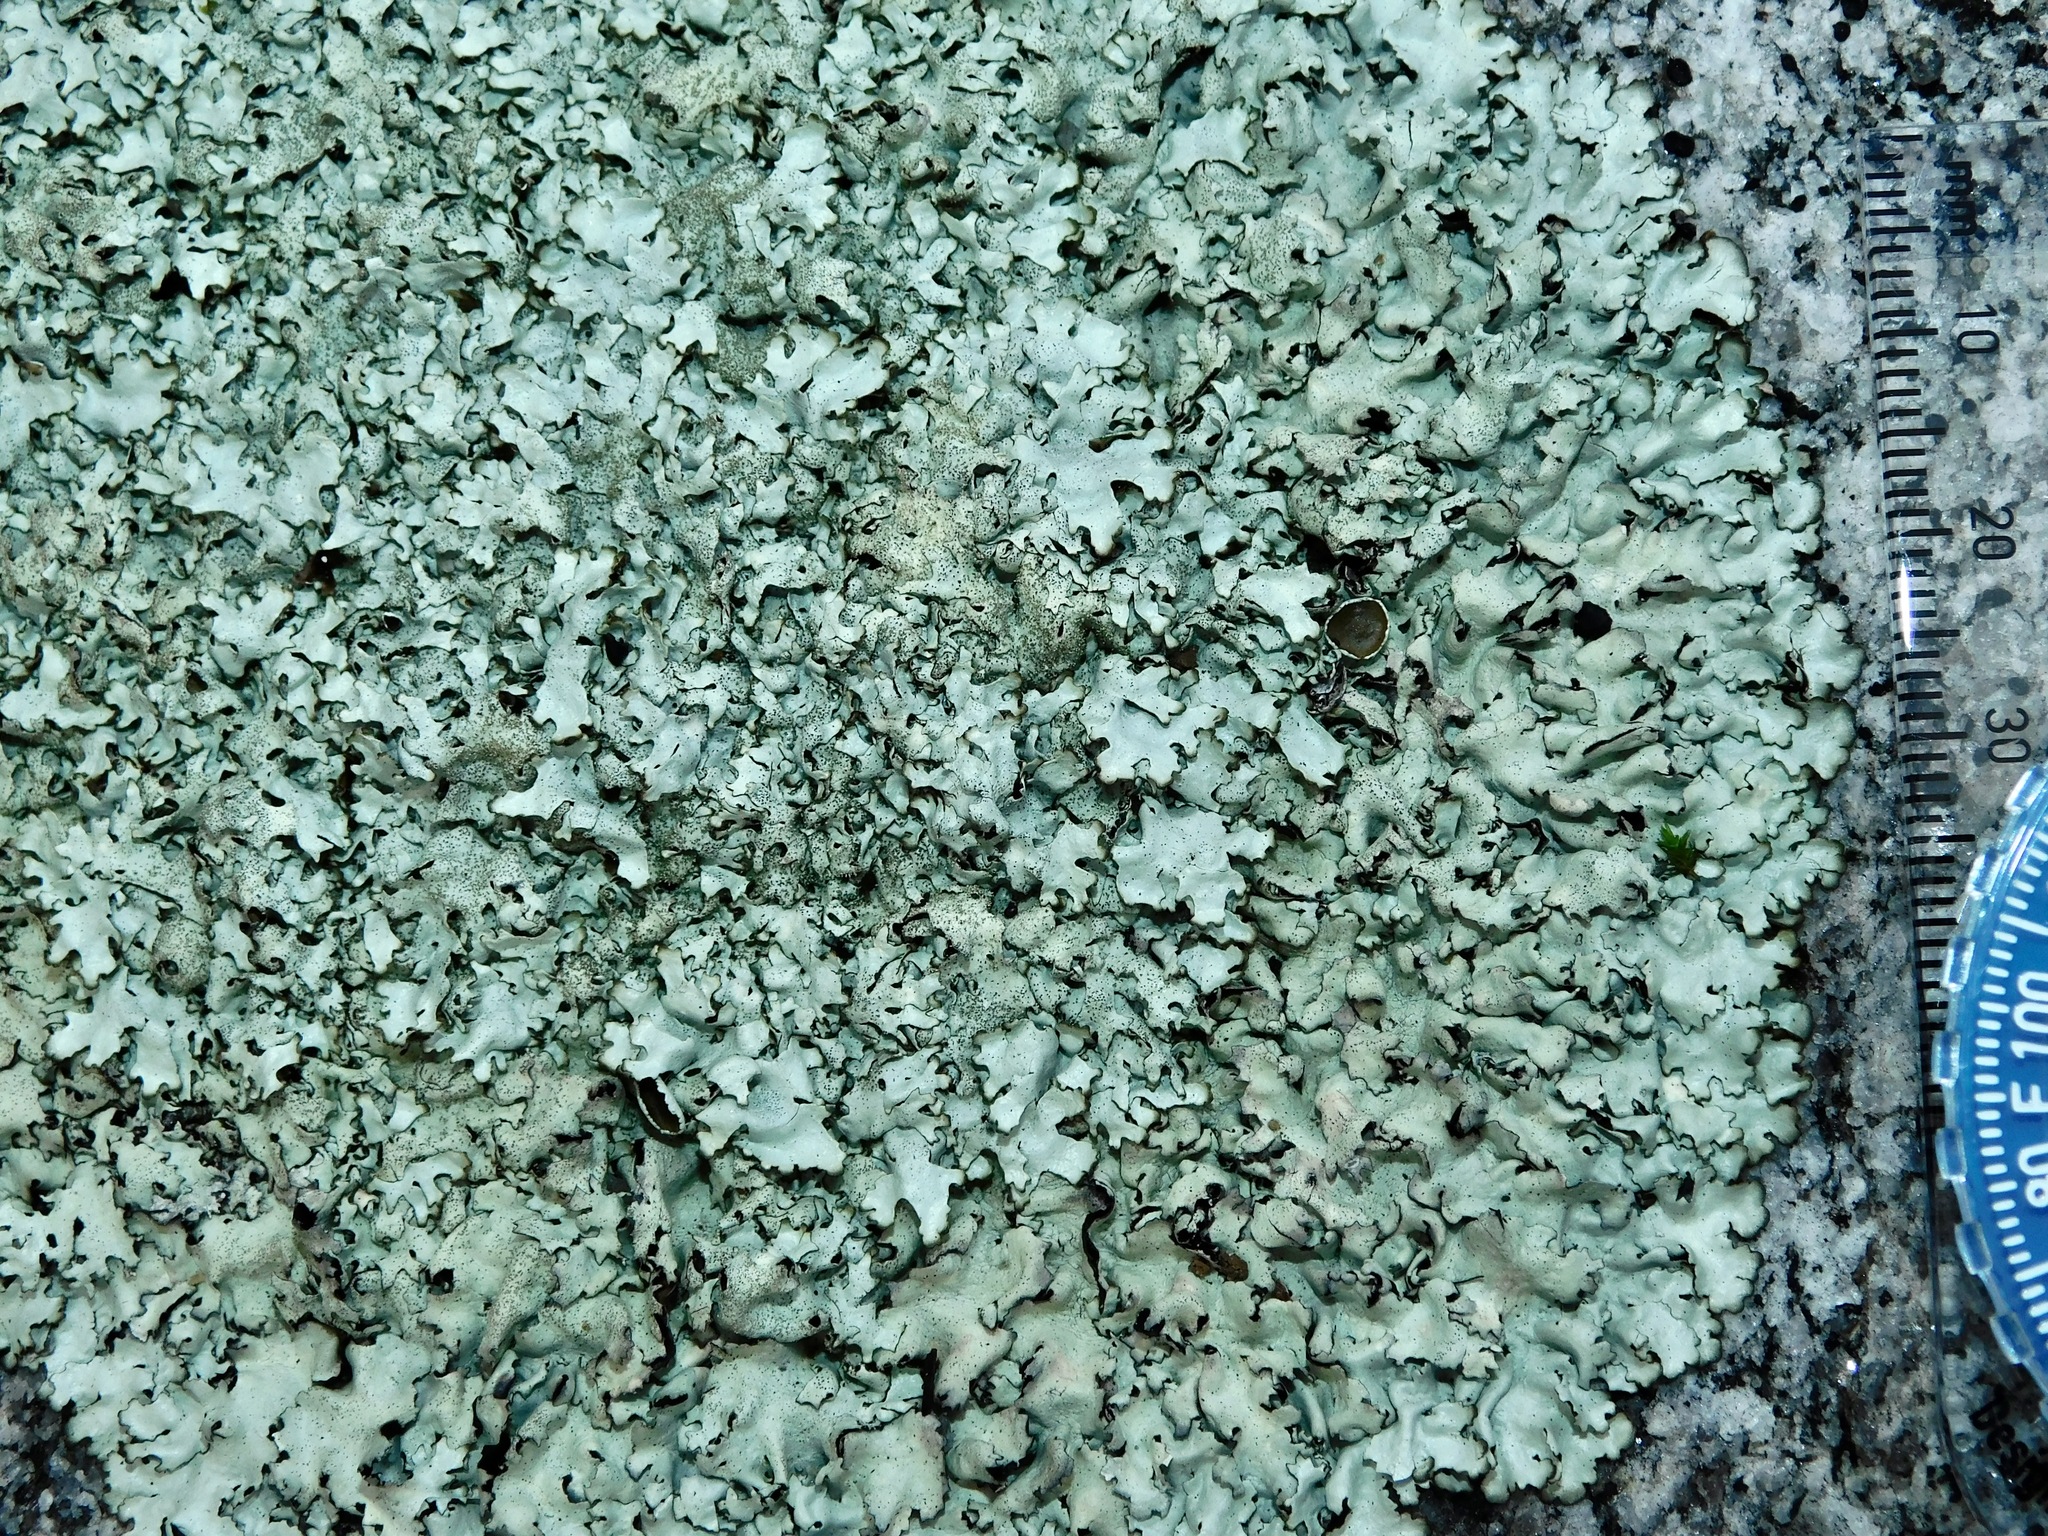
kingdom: Fungi
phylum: Ascomycota
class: Lecanoromycetes
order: Lecanorales
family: Parmeliaceae
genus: Xanthoparmelia
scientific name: Xanthoparmelia cumberlandia
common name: Cumberland rock shield
